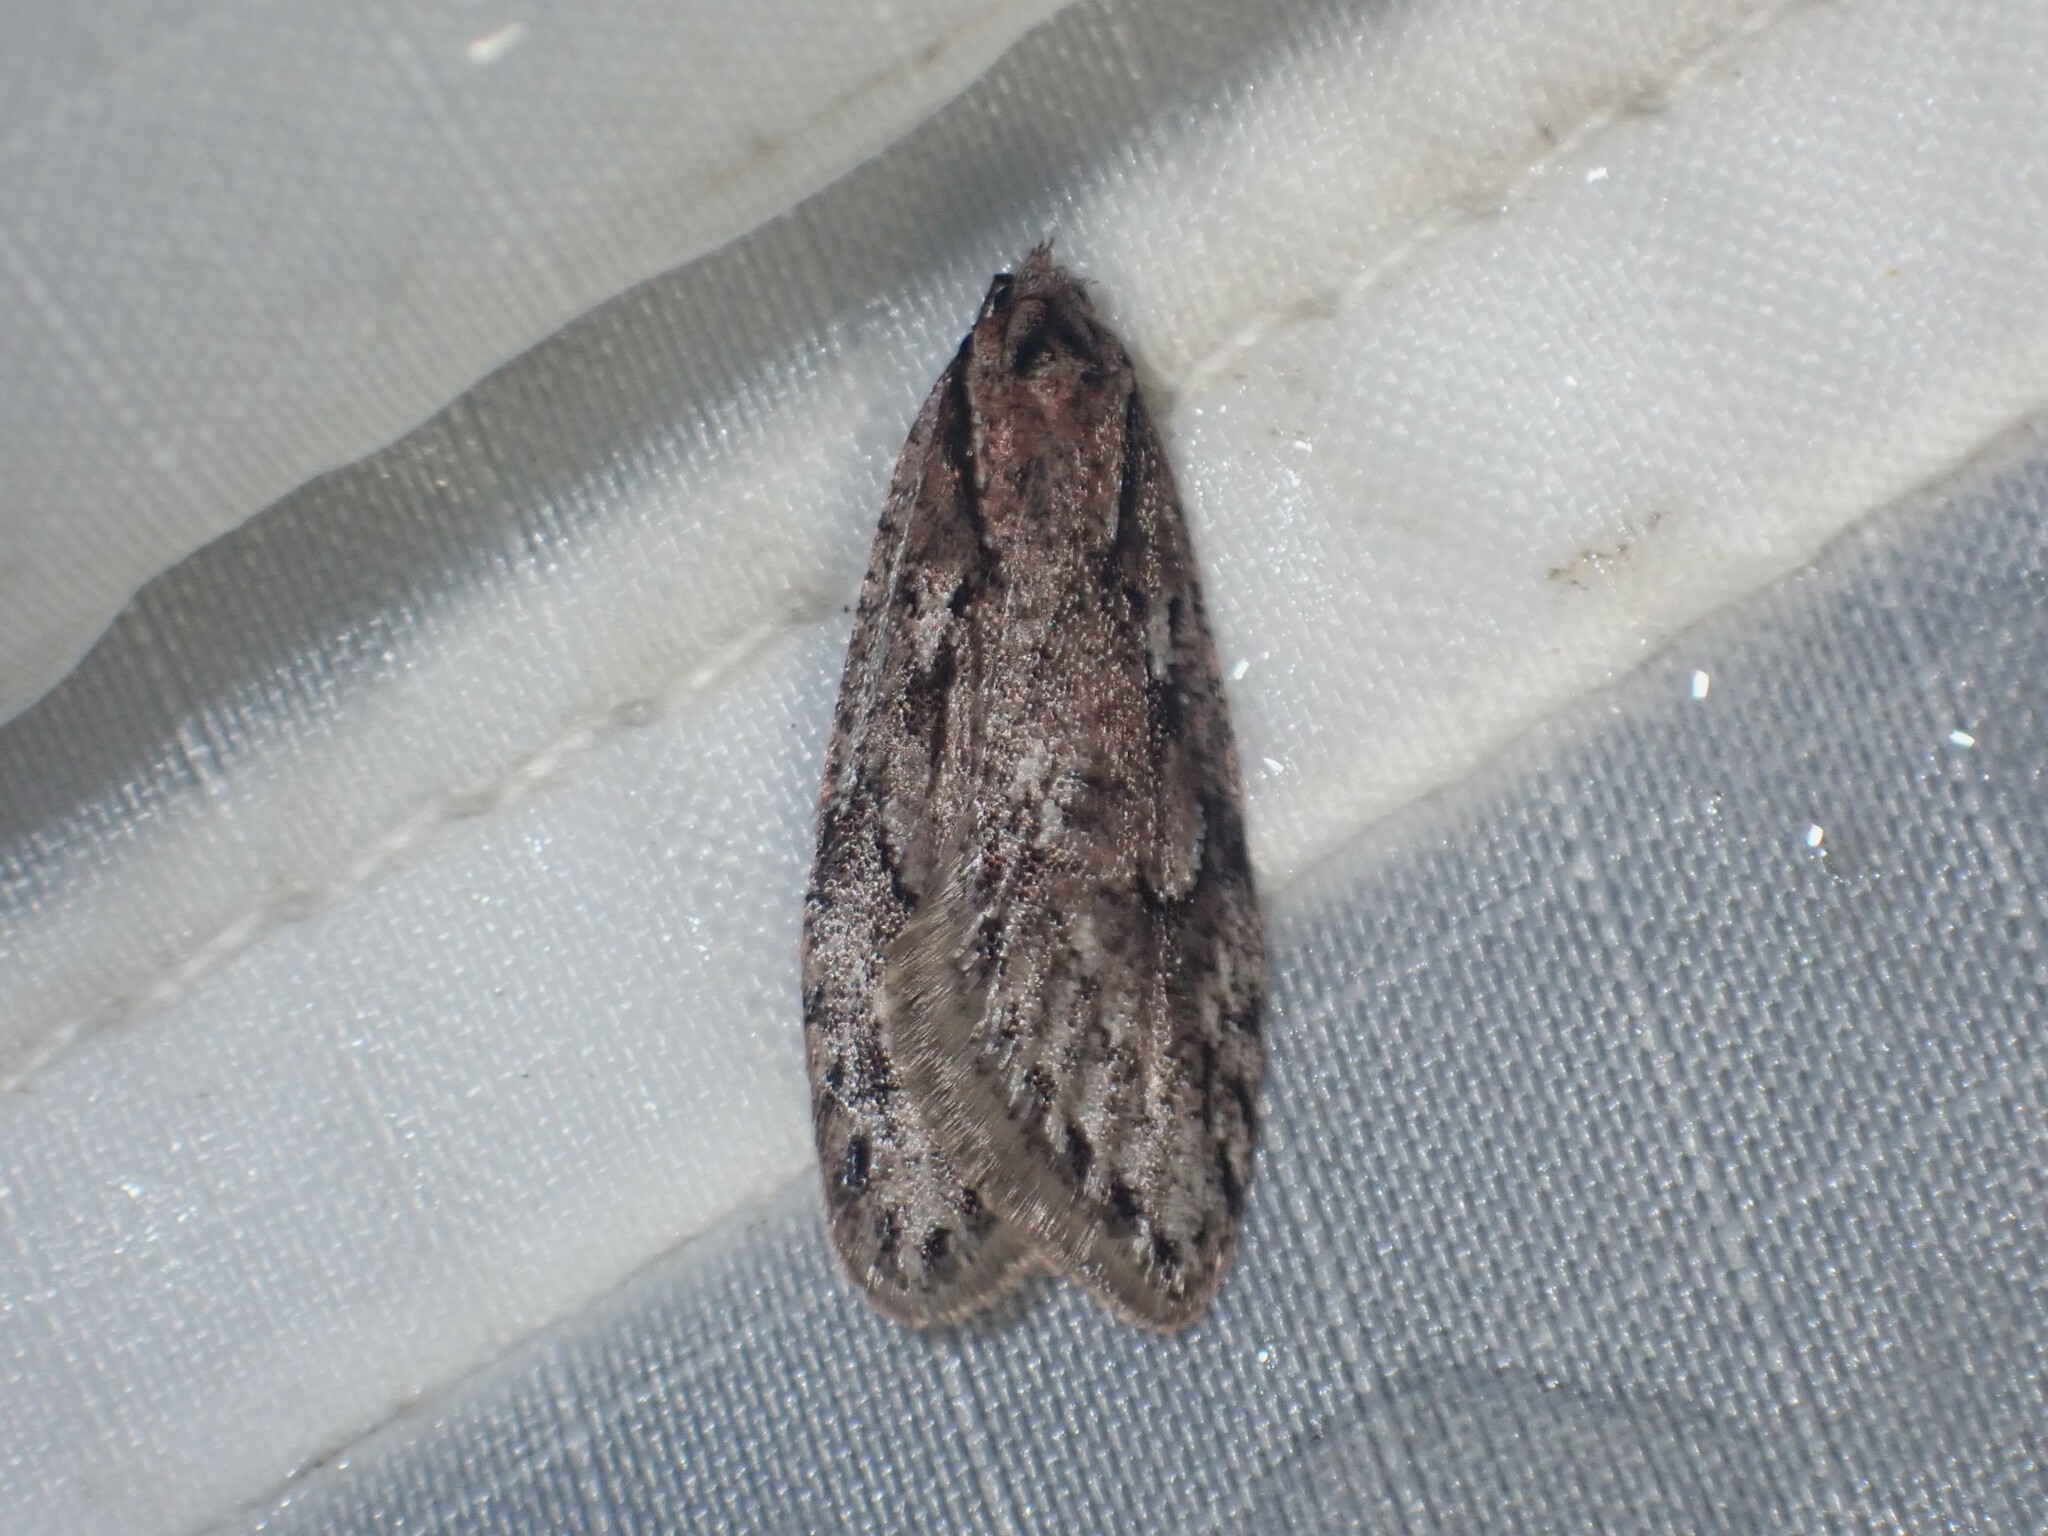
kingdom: Animalia
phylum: Arthropoda
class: Insecta
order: Lepidoptera
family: Depressariidae
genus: Semioscopis
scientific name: Semioscopis aurorella
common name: Aurora flatbody moth
